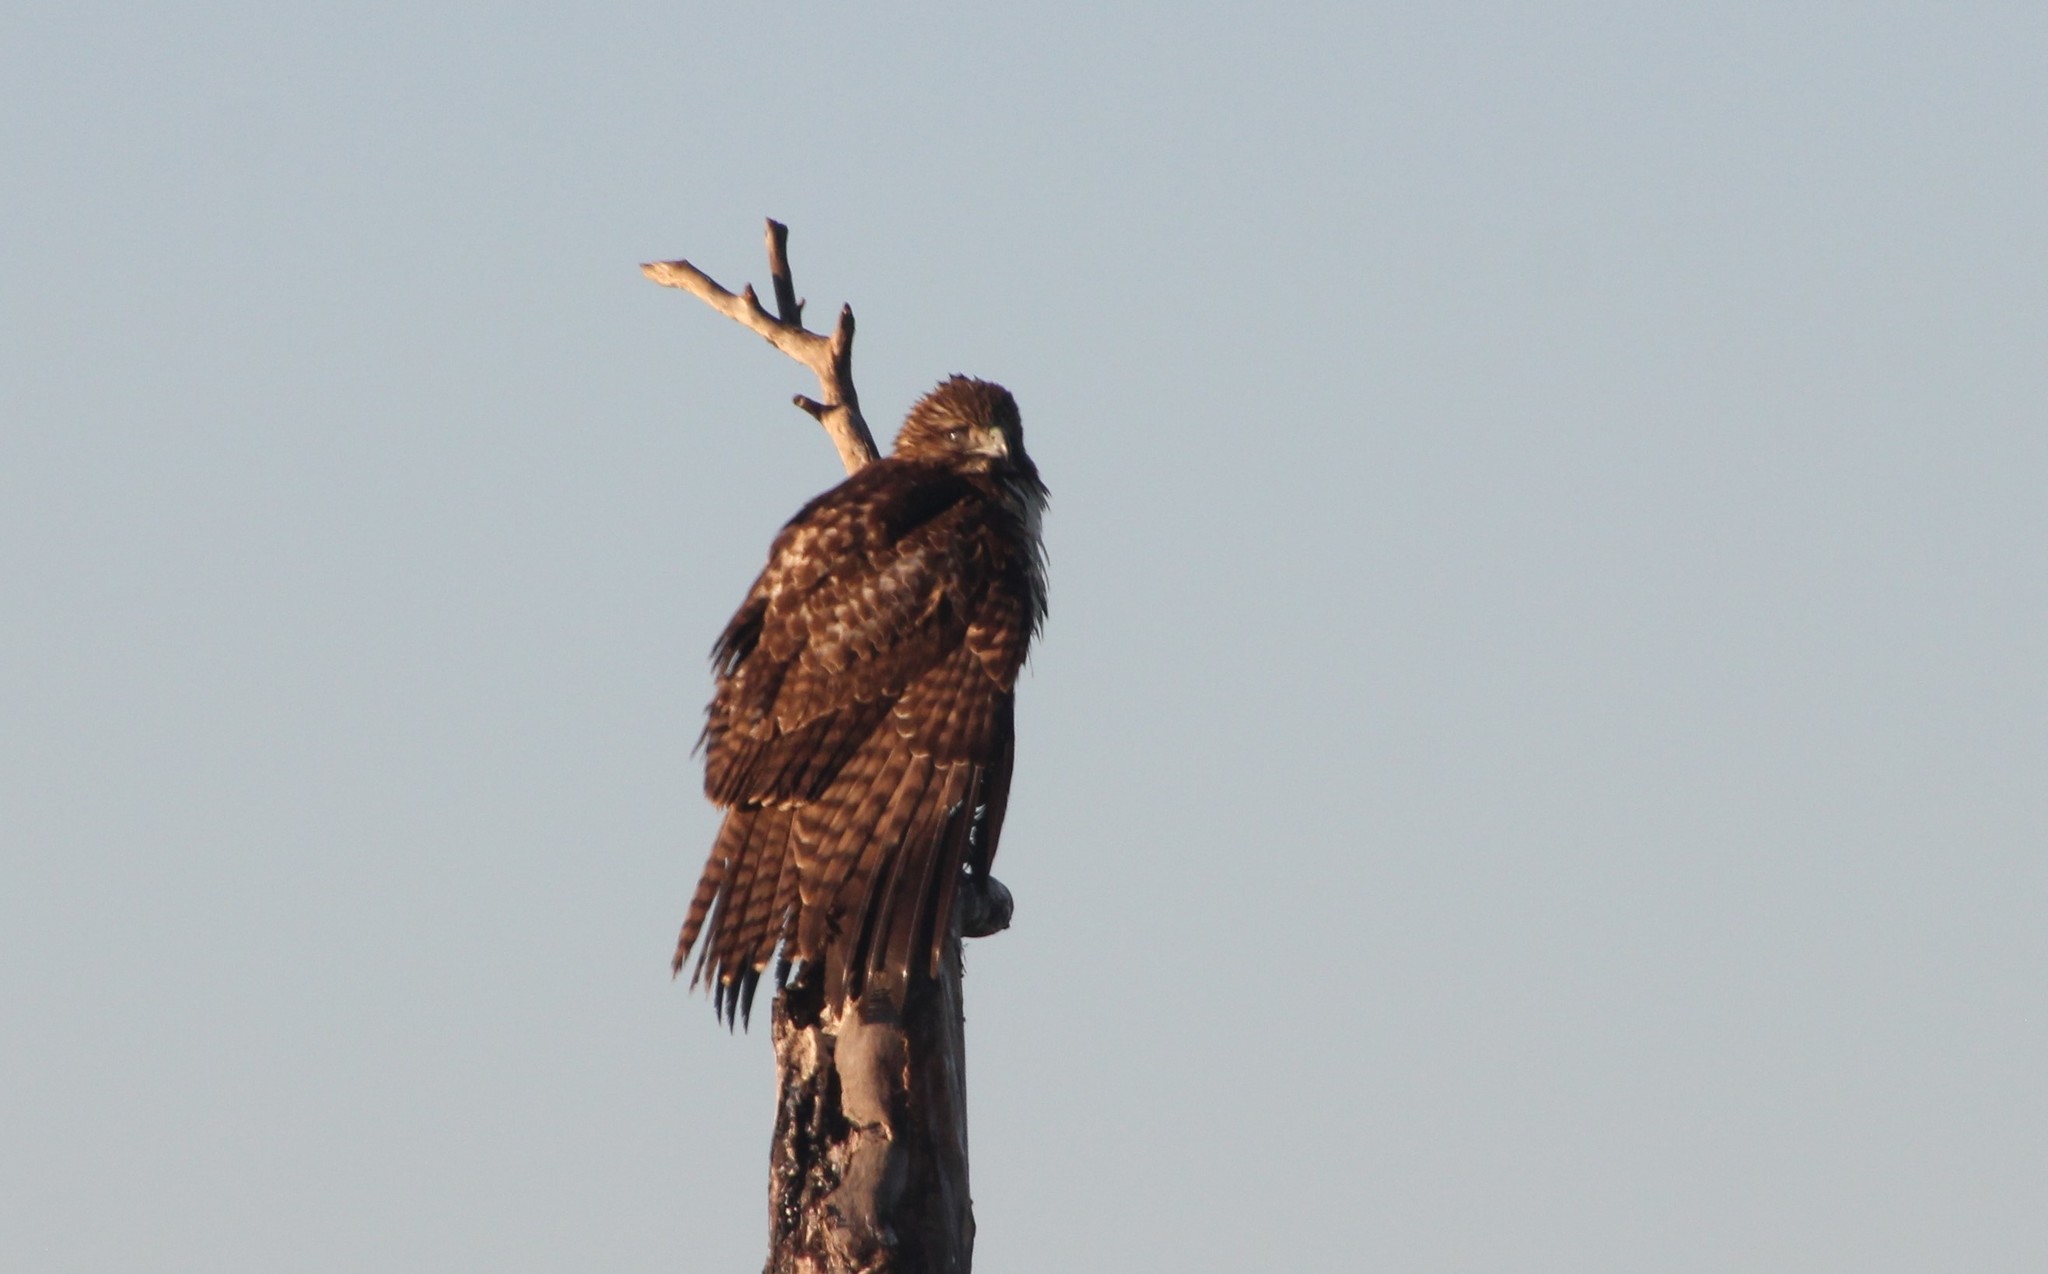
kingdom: Animalia
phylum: Chordata
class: Aves
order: Accipitriformes
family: Accipitridae
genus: Buteo
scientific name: Buteo jamaicensis
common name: Red-tailed hawk
